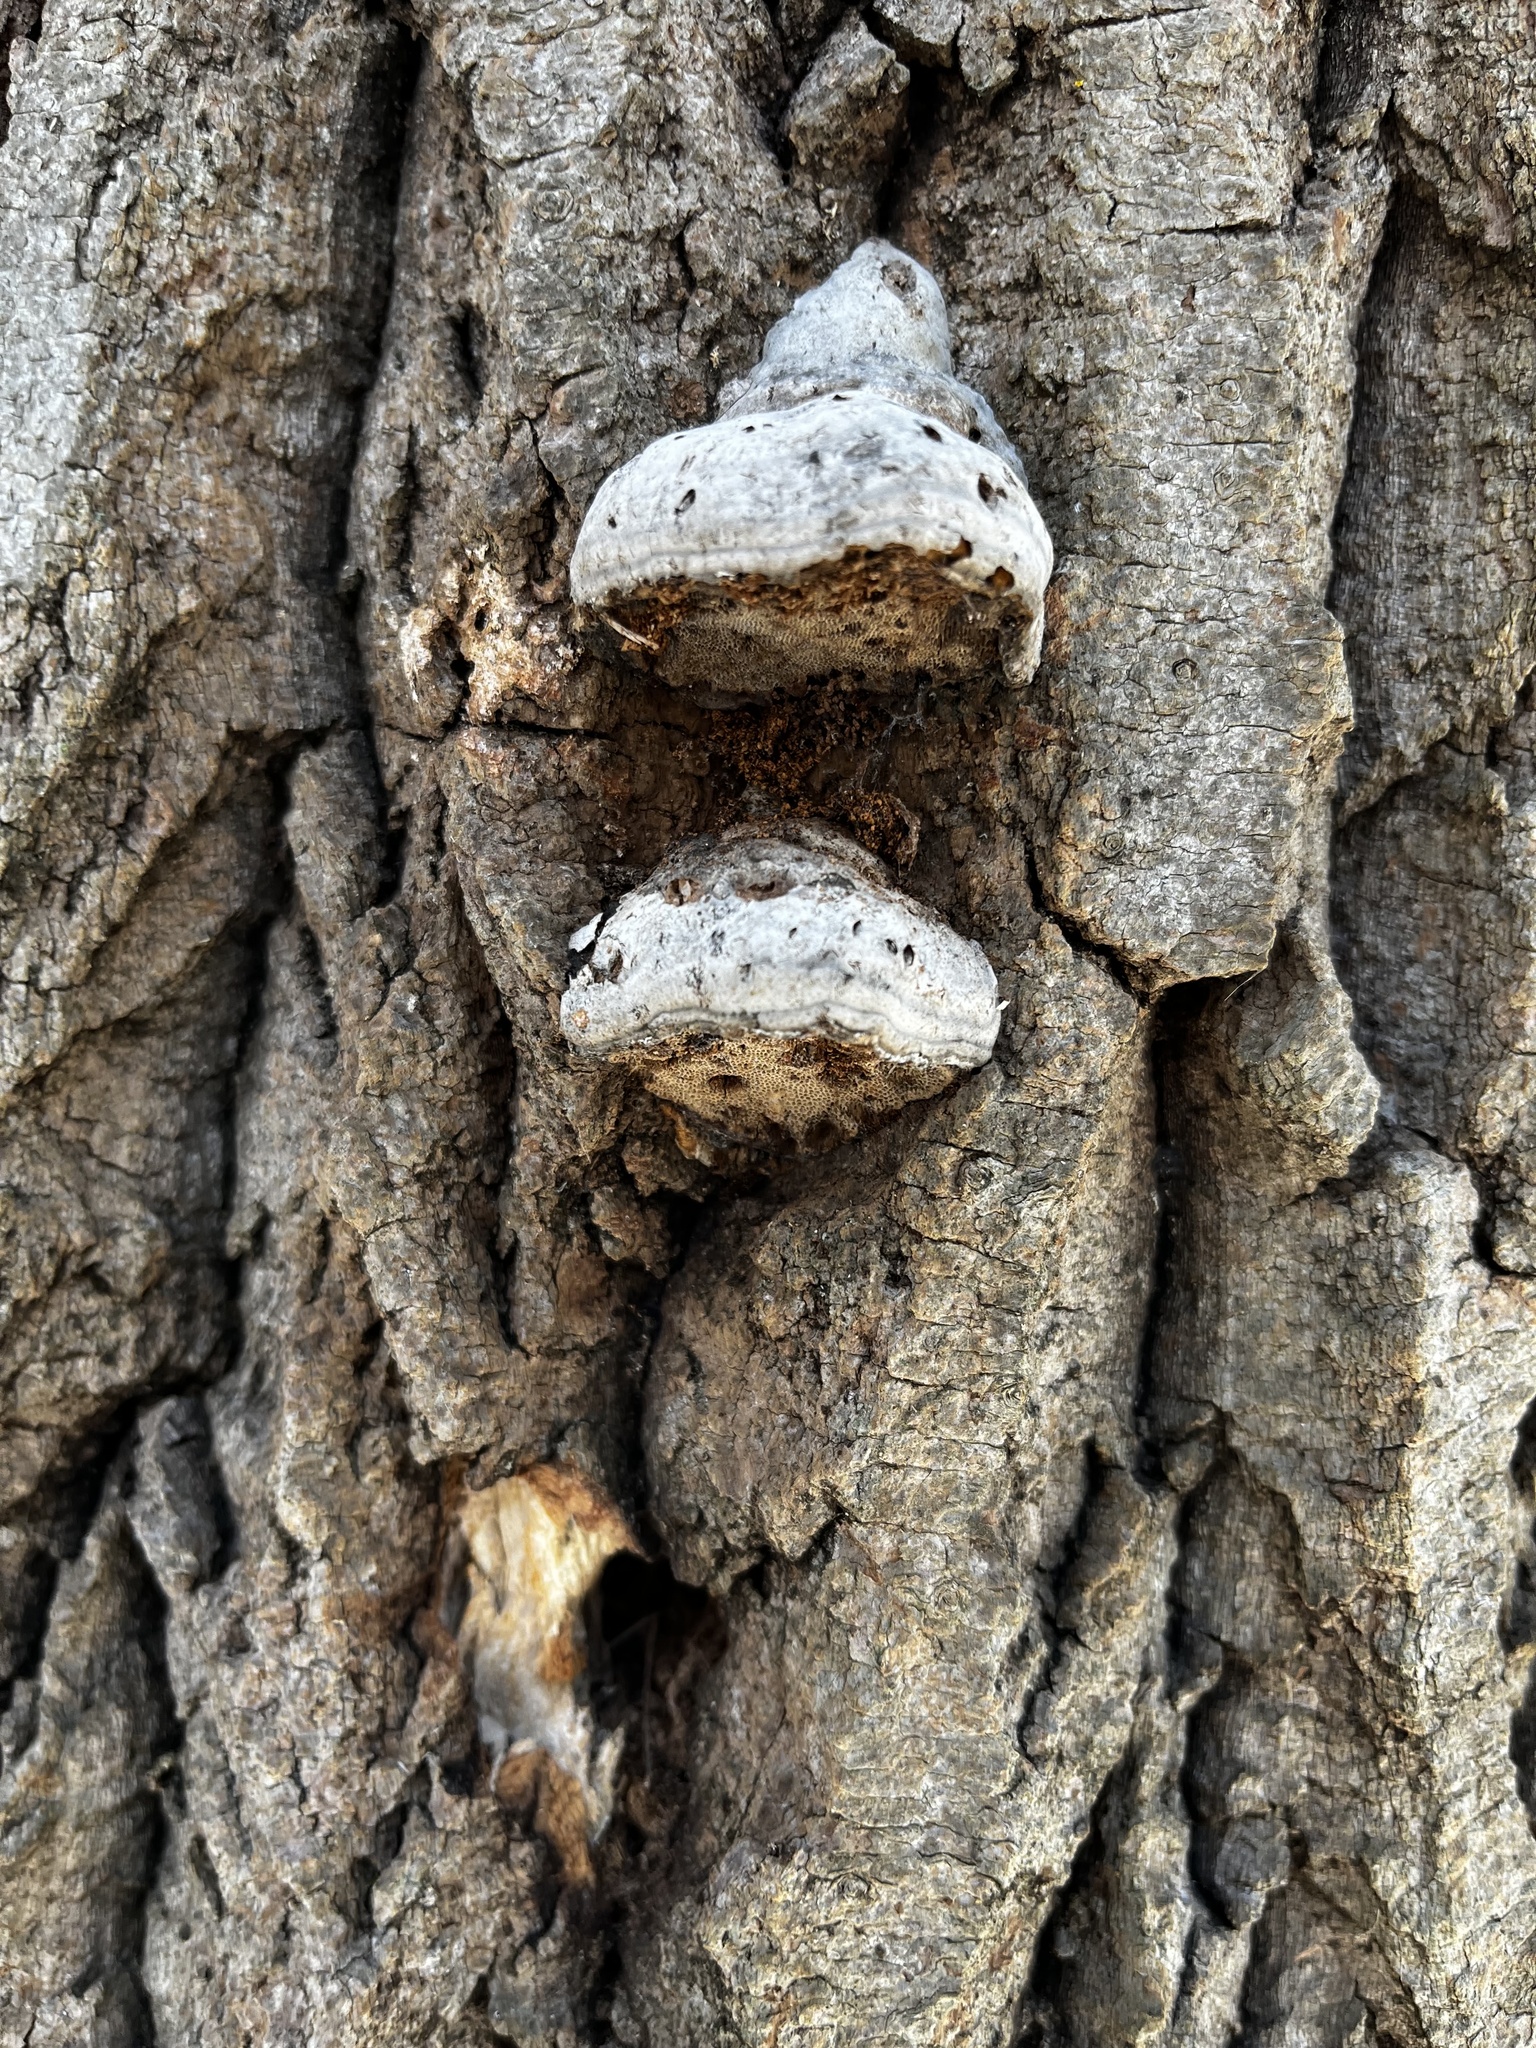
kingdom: Fungi
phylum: Basidiomycota
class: Agaricomycetes
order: Polyporales
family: Polyporaceae
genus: Fomes
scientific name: Fomes fomentarius
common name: Hoof fungus
